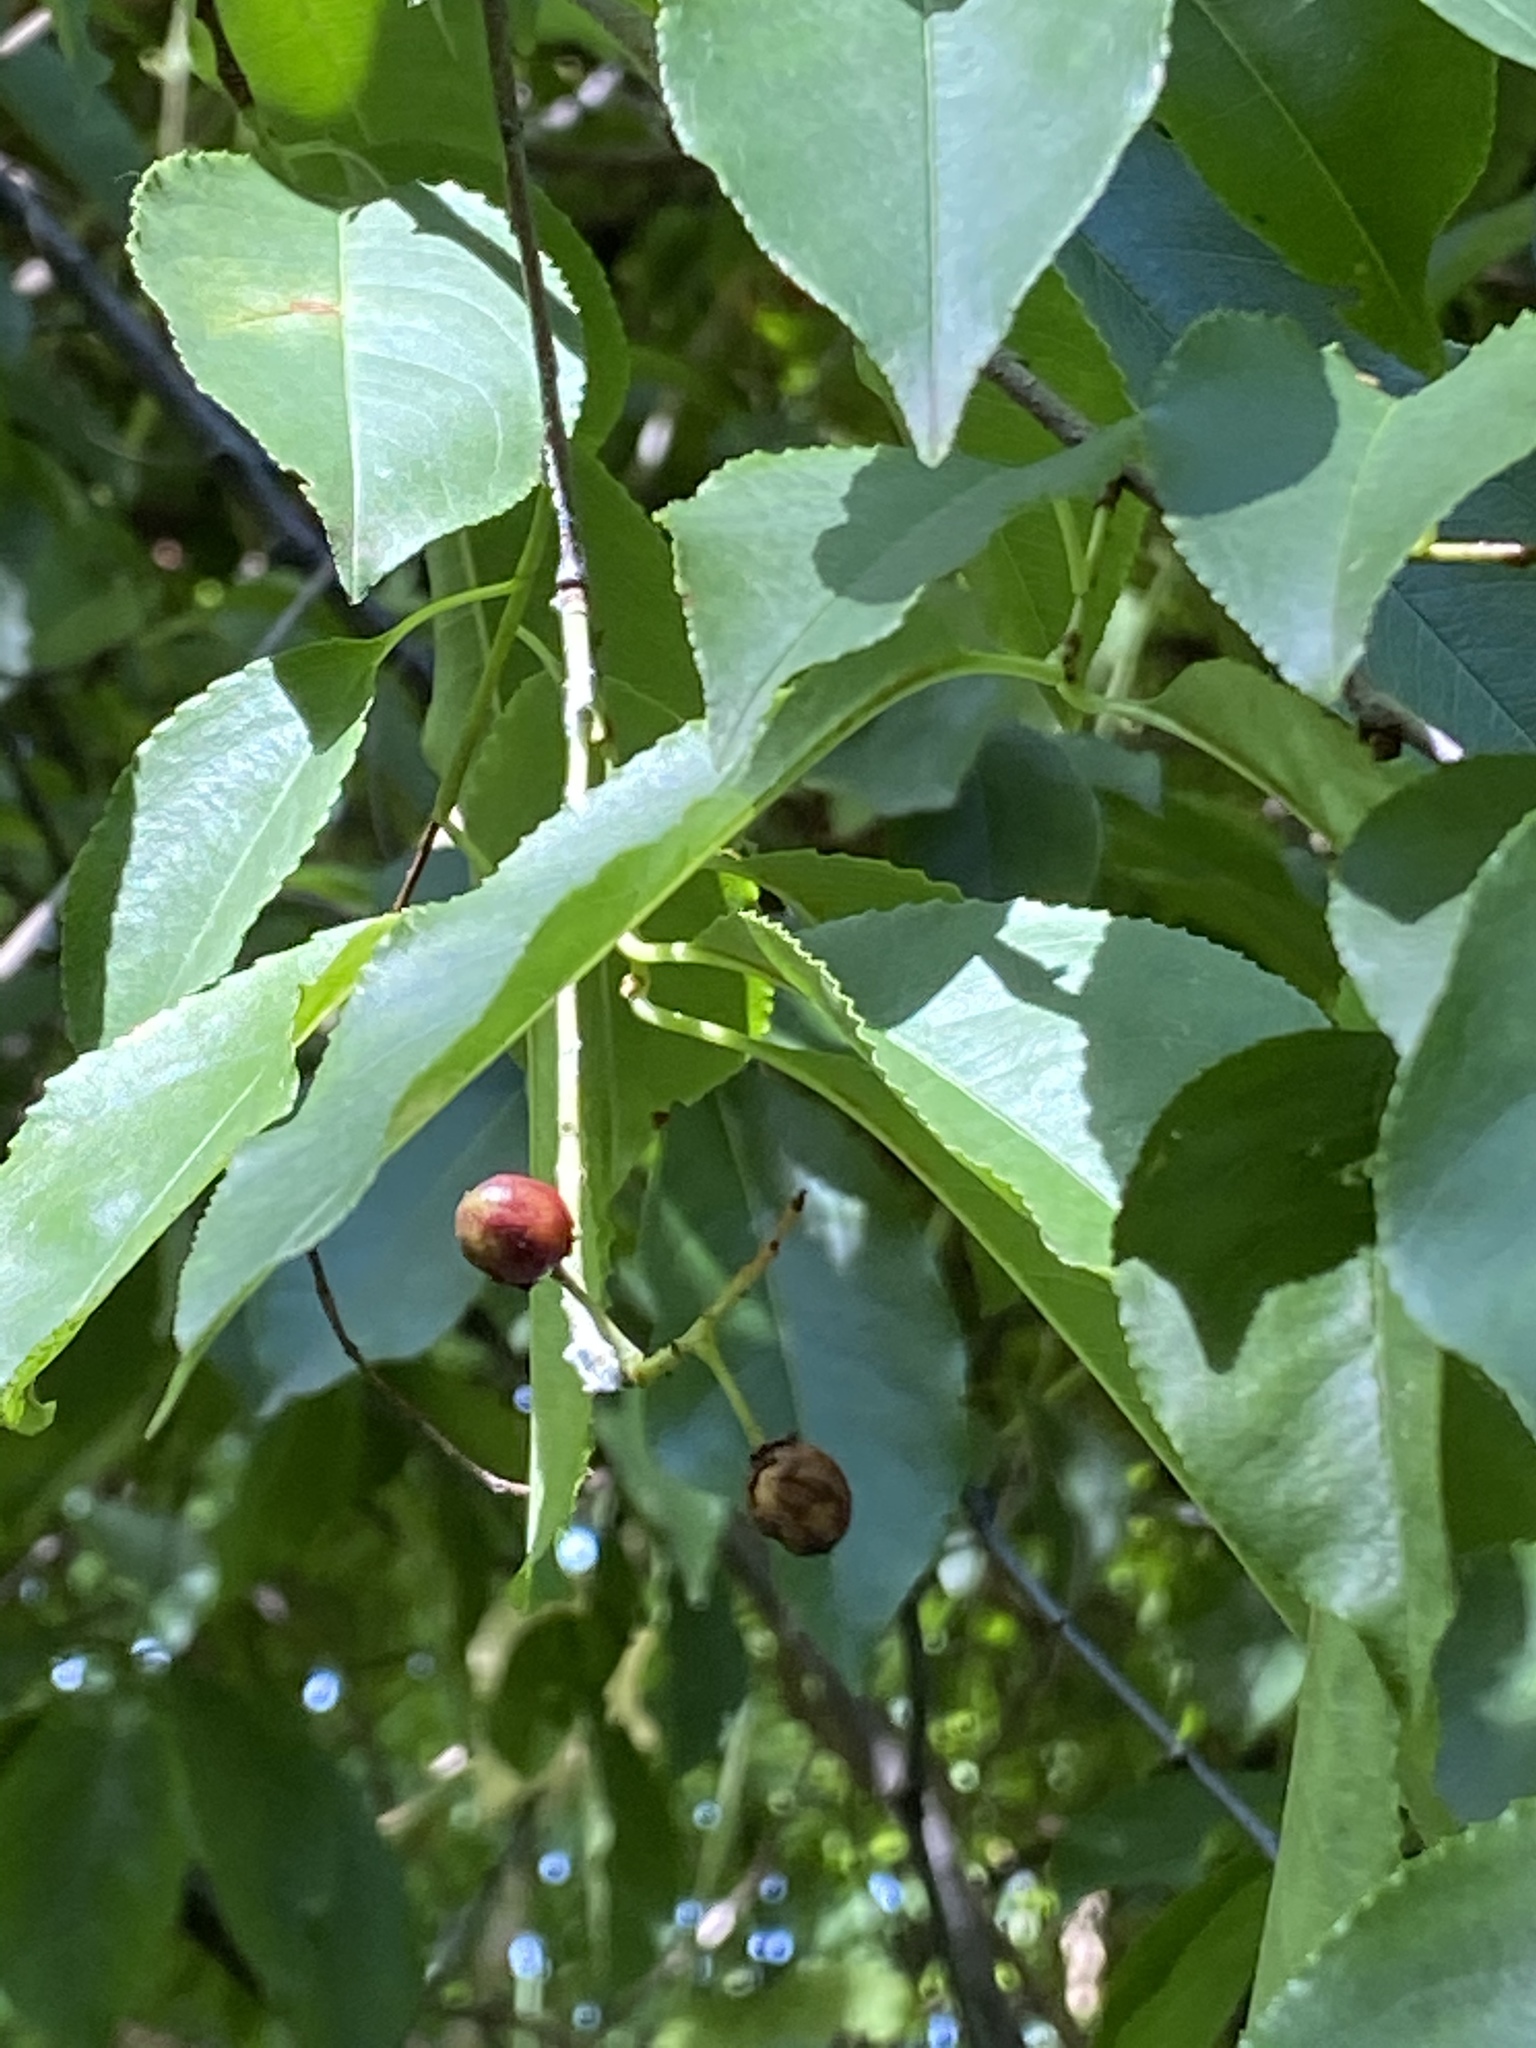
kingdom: Plantae
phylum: Tracheophyta
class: Magnoliopsida
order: Rosales
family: Rosaceae
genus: Prunus
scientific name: Prunus serotina
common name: Black cherry
